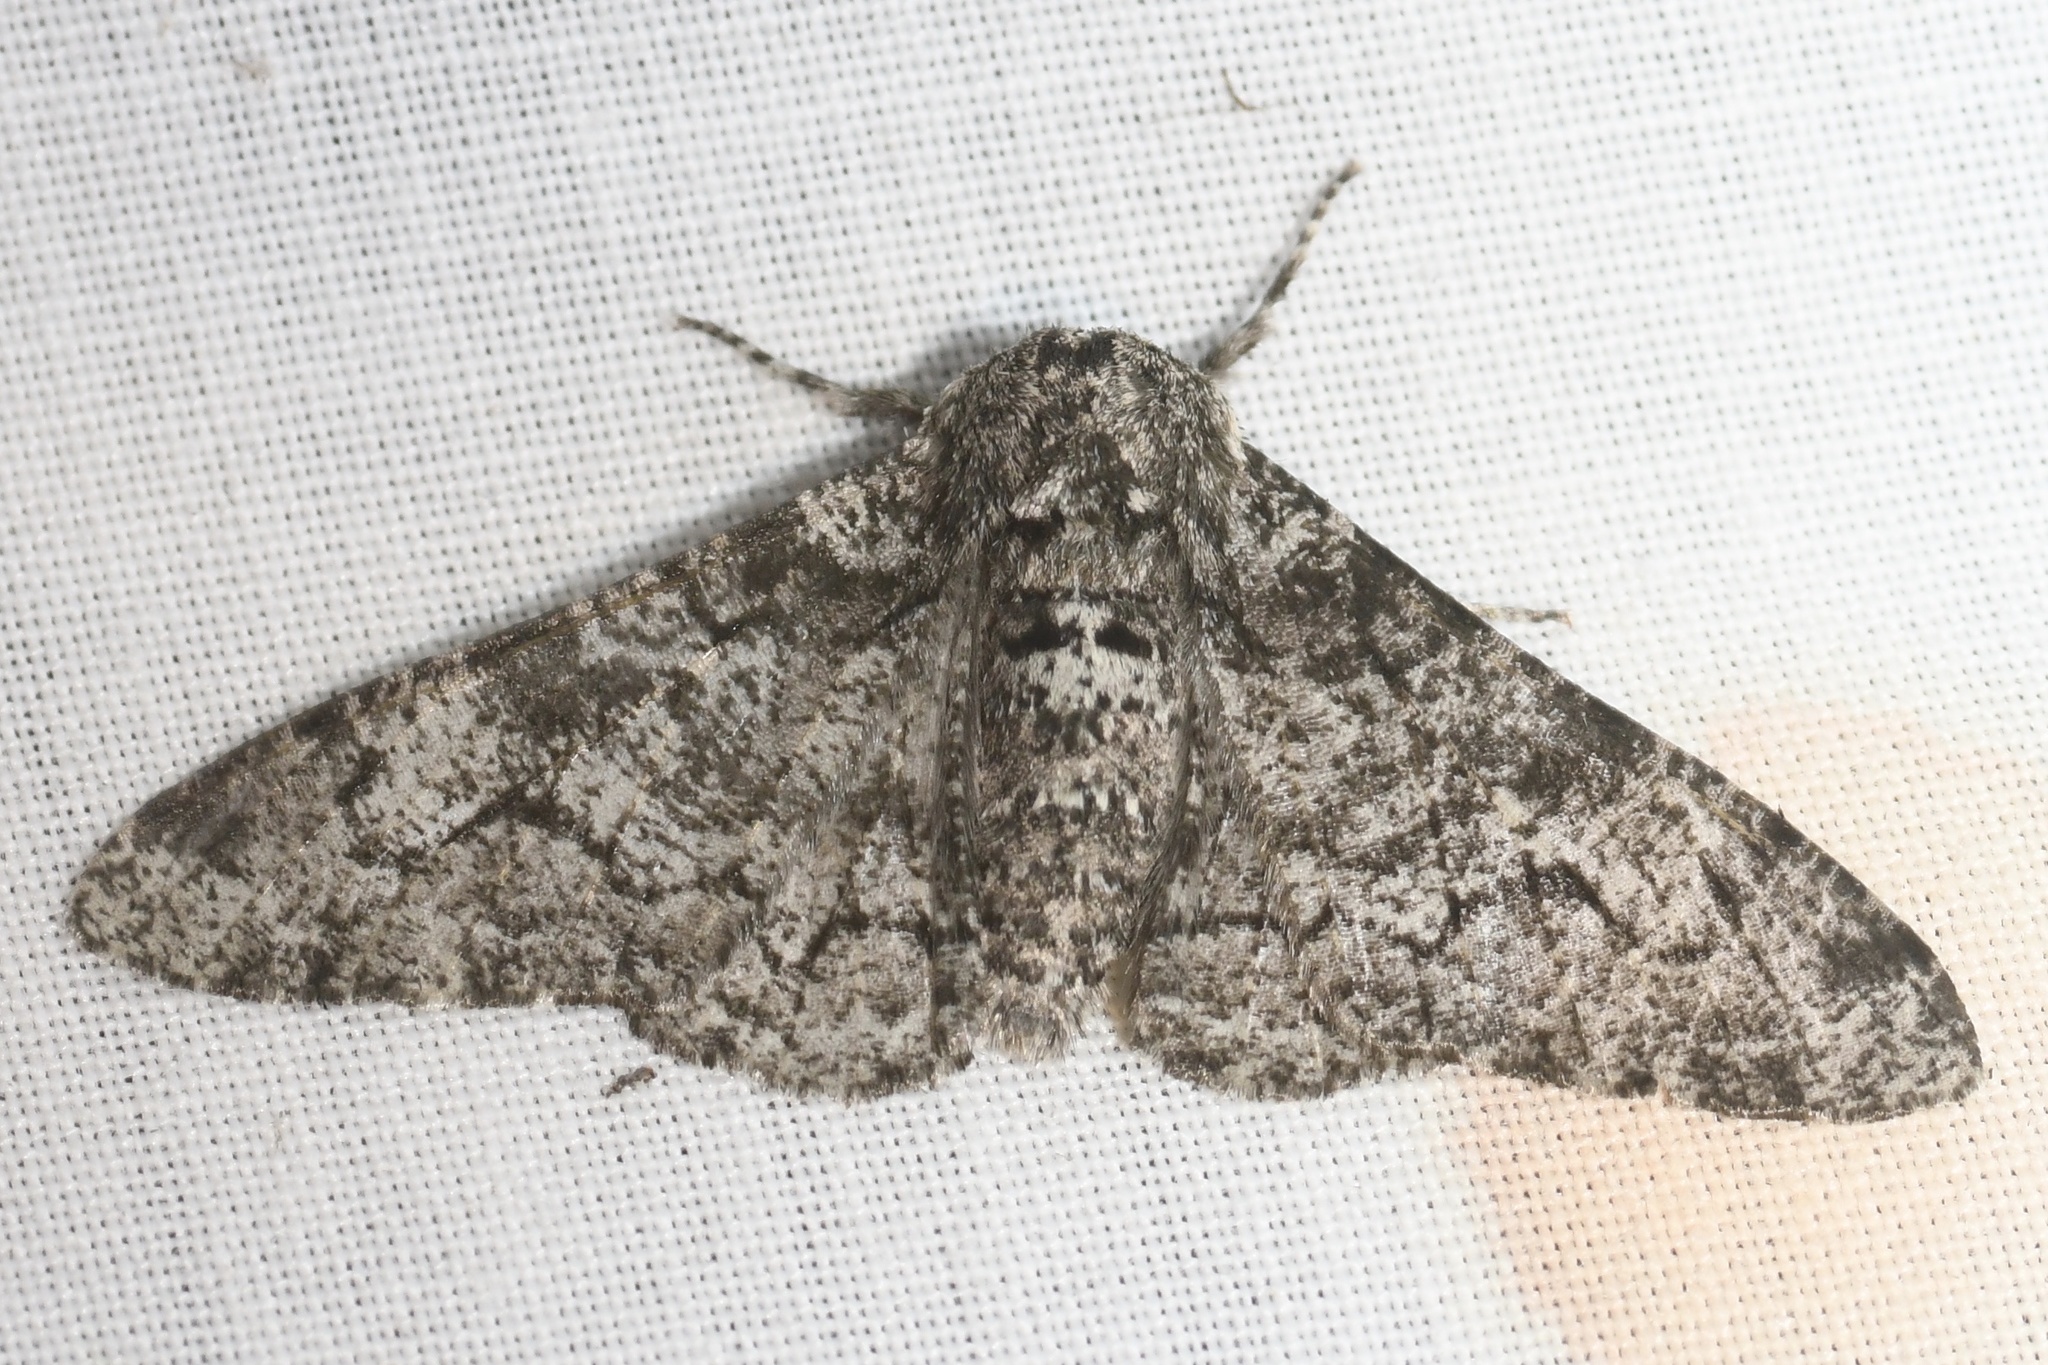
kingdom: Animalia
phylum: Arthropoda
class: Insecta
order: Lepidoptera
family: Geometridae
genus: Biston
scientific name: Biston betularia
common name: Peppered moth
